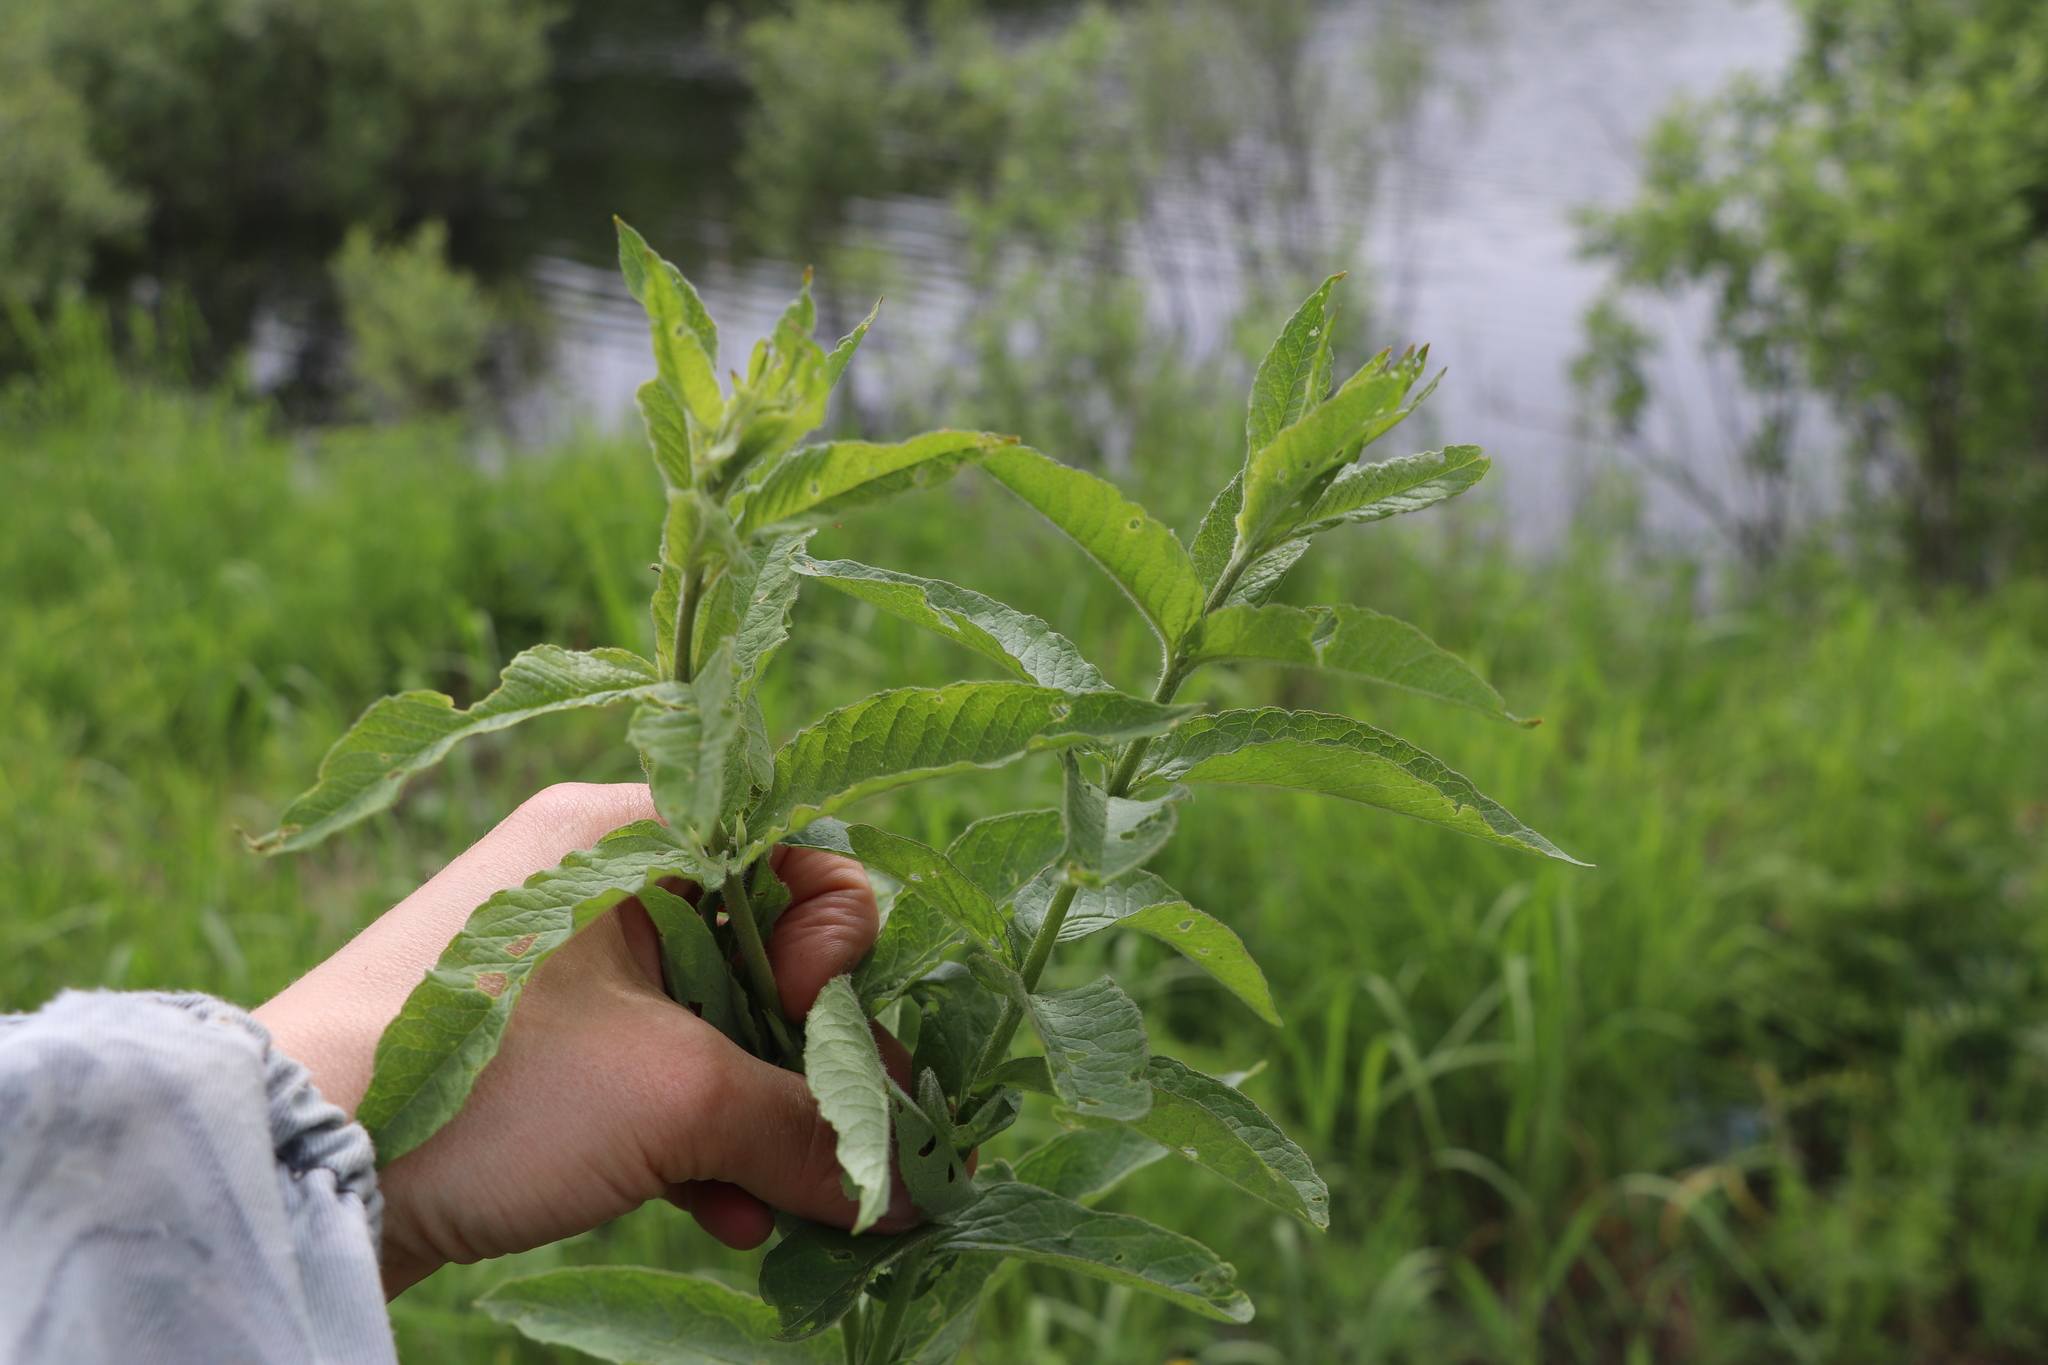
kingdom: Plantae
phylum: Tracheophyta
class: Magnoliopsida
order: Ericales
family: Primulaceae
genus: Lysimachia
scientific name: Lysimachia vulgaris
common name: Yellow loosestrife
